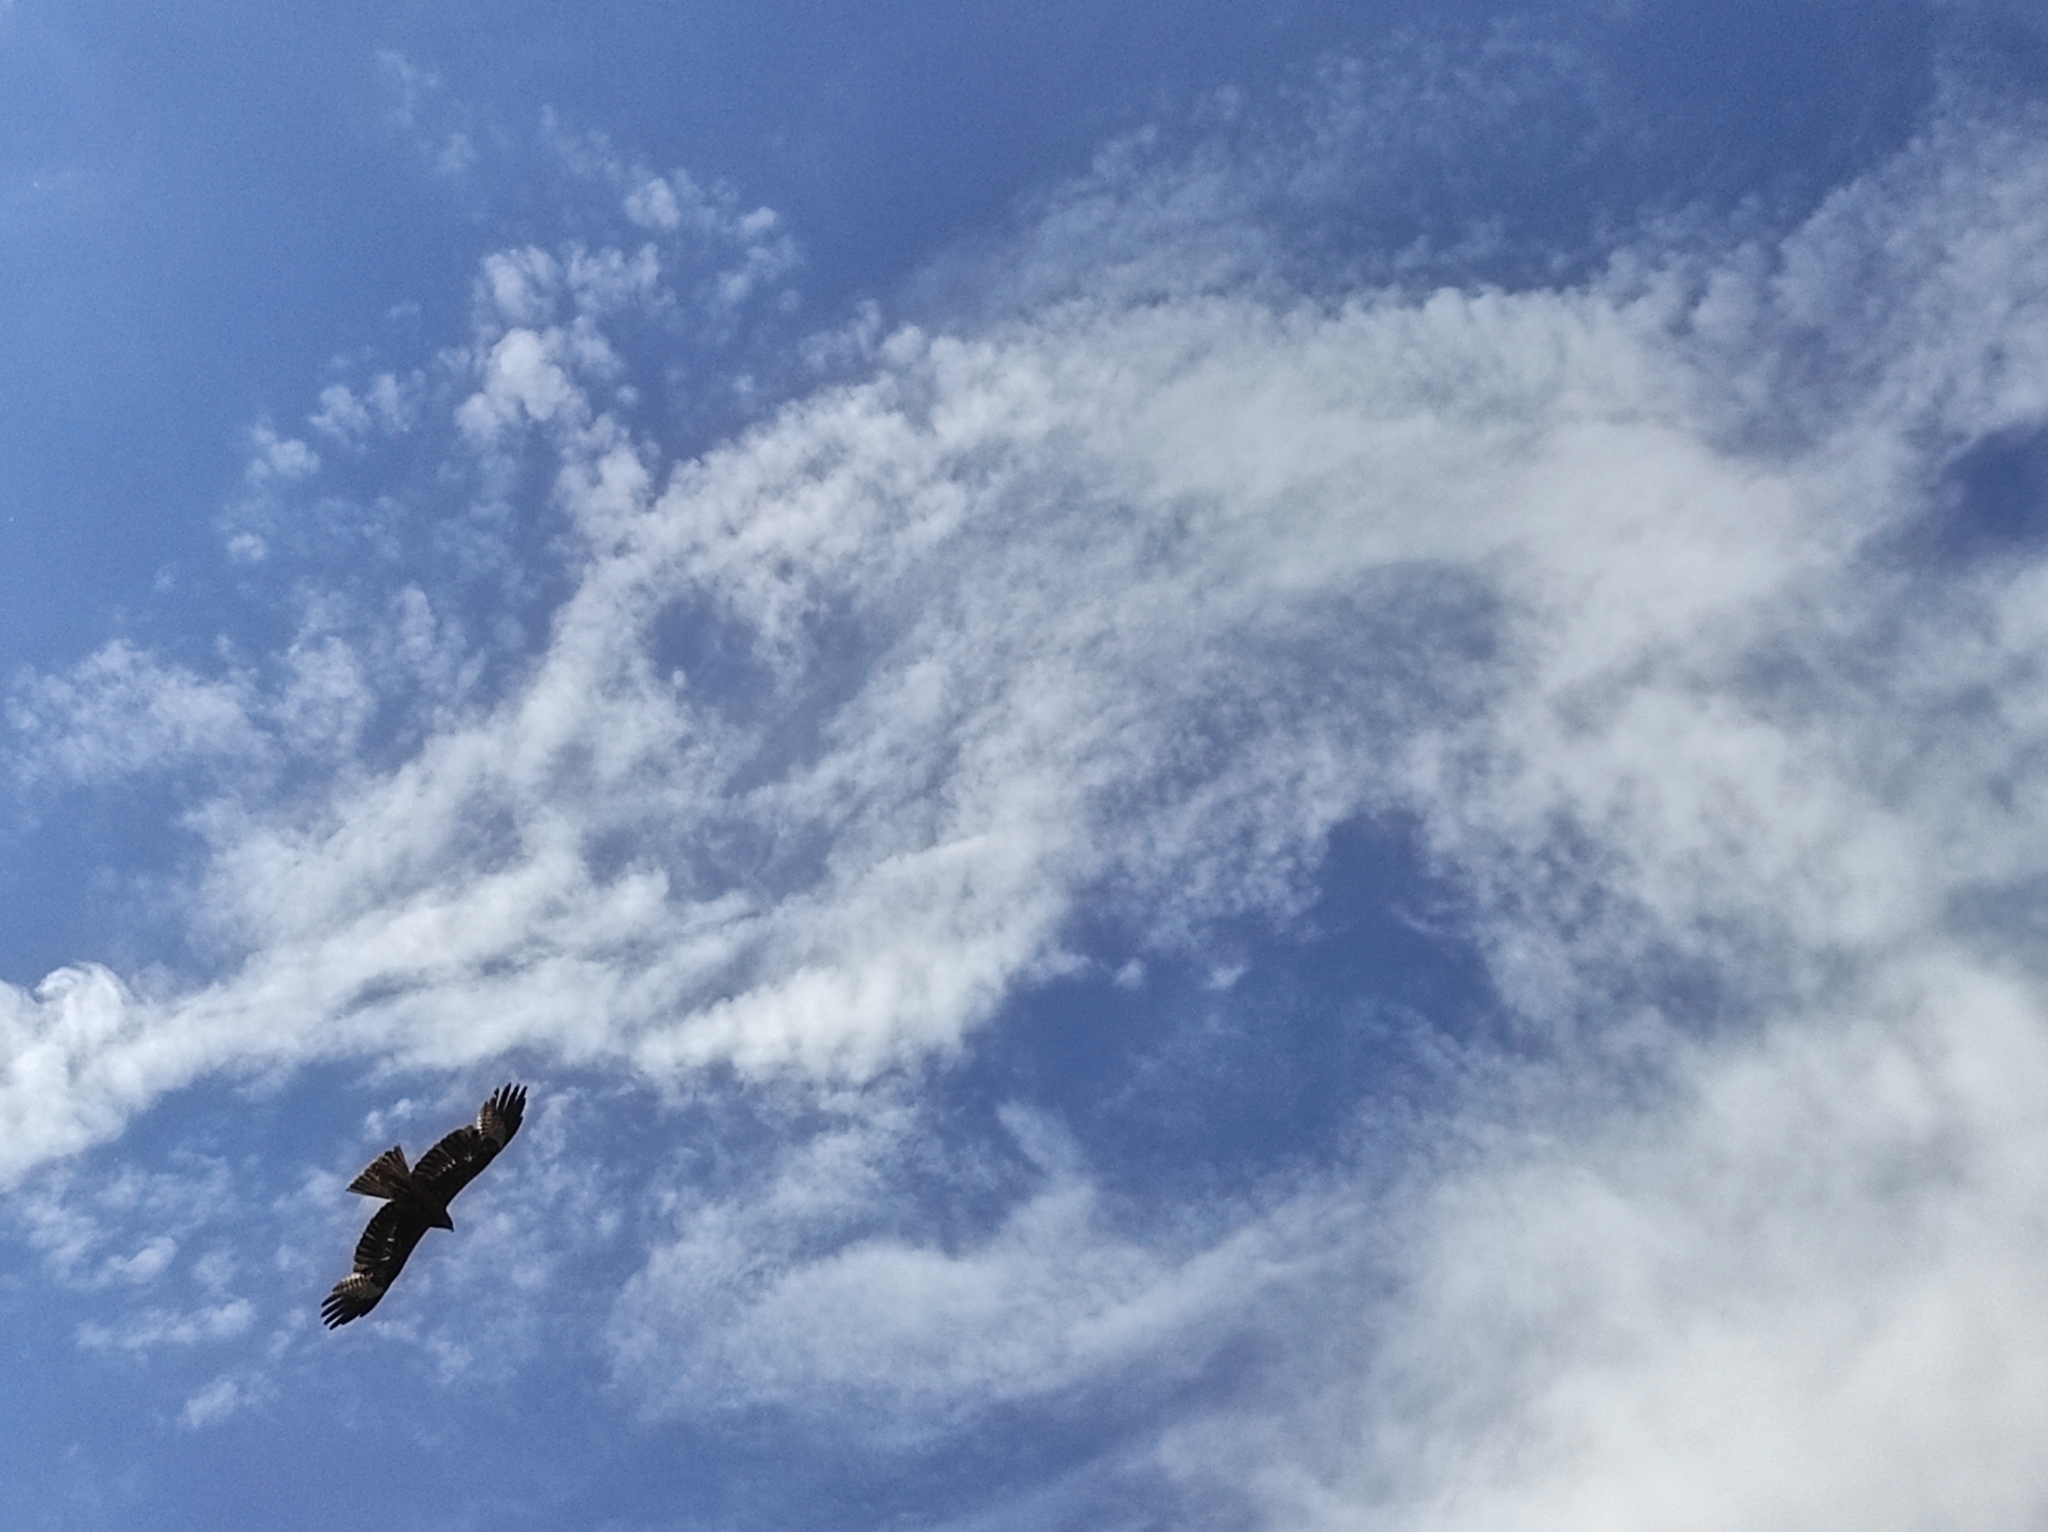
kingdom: Animalia
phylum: Chordata
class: Aves
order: Accipitriformes
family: Accipitridae
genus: Milvus
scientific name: Milvus migrans
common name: Black kite
